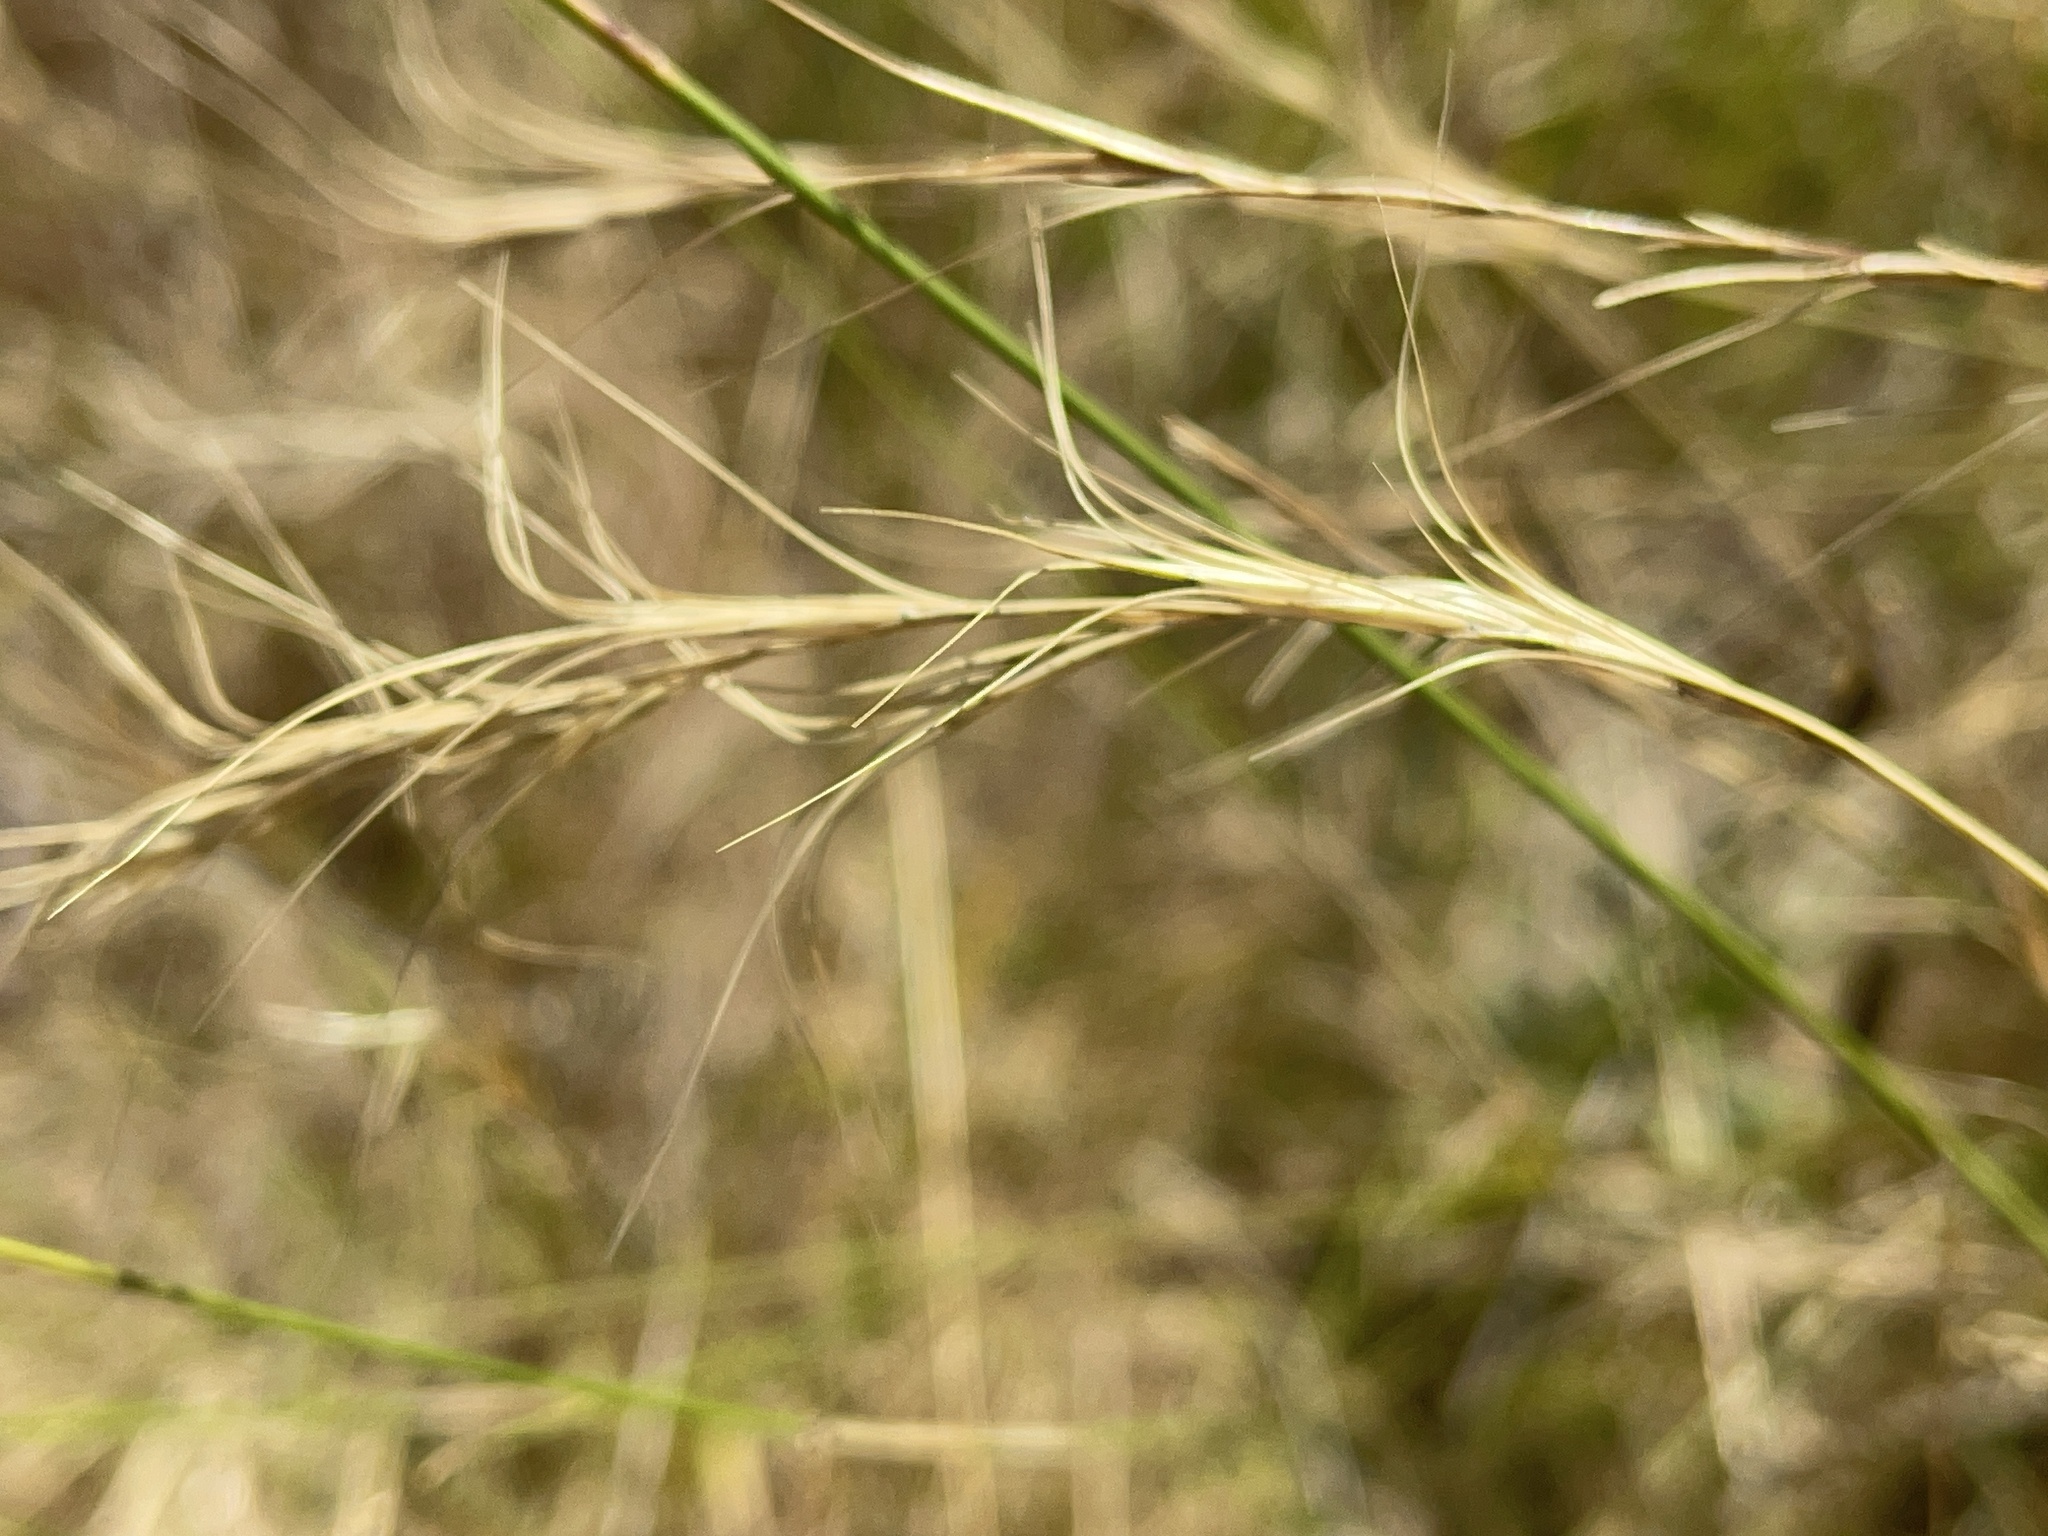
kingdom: Plantae
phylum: Tracheophyta
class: Liliopsida
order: Poales
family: Poaceae
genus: Anthosachne
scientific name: Anthosachne scabra
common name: Common wheatgrass
